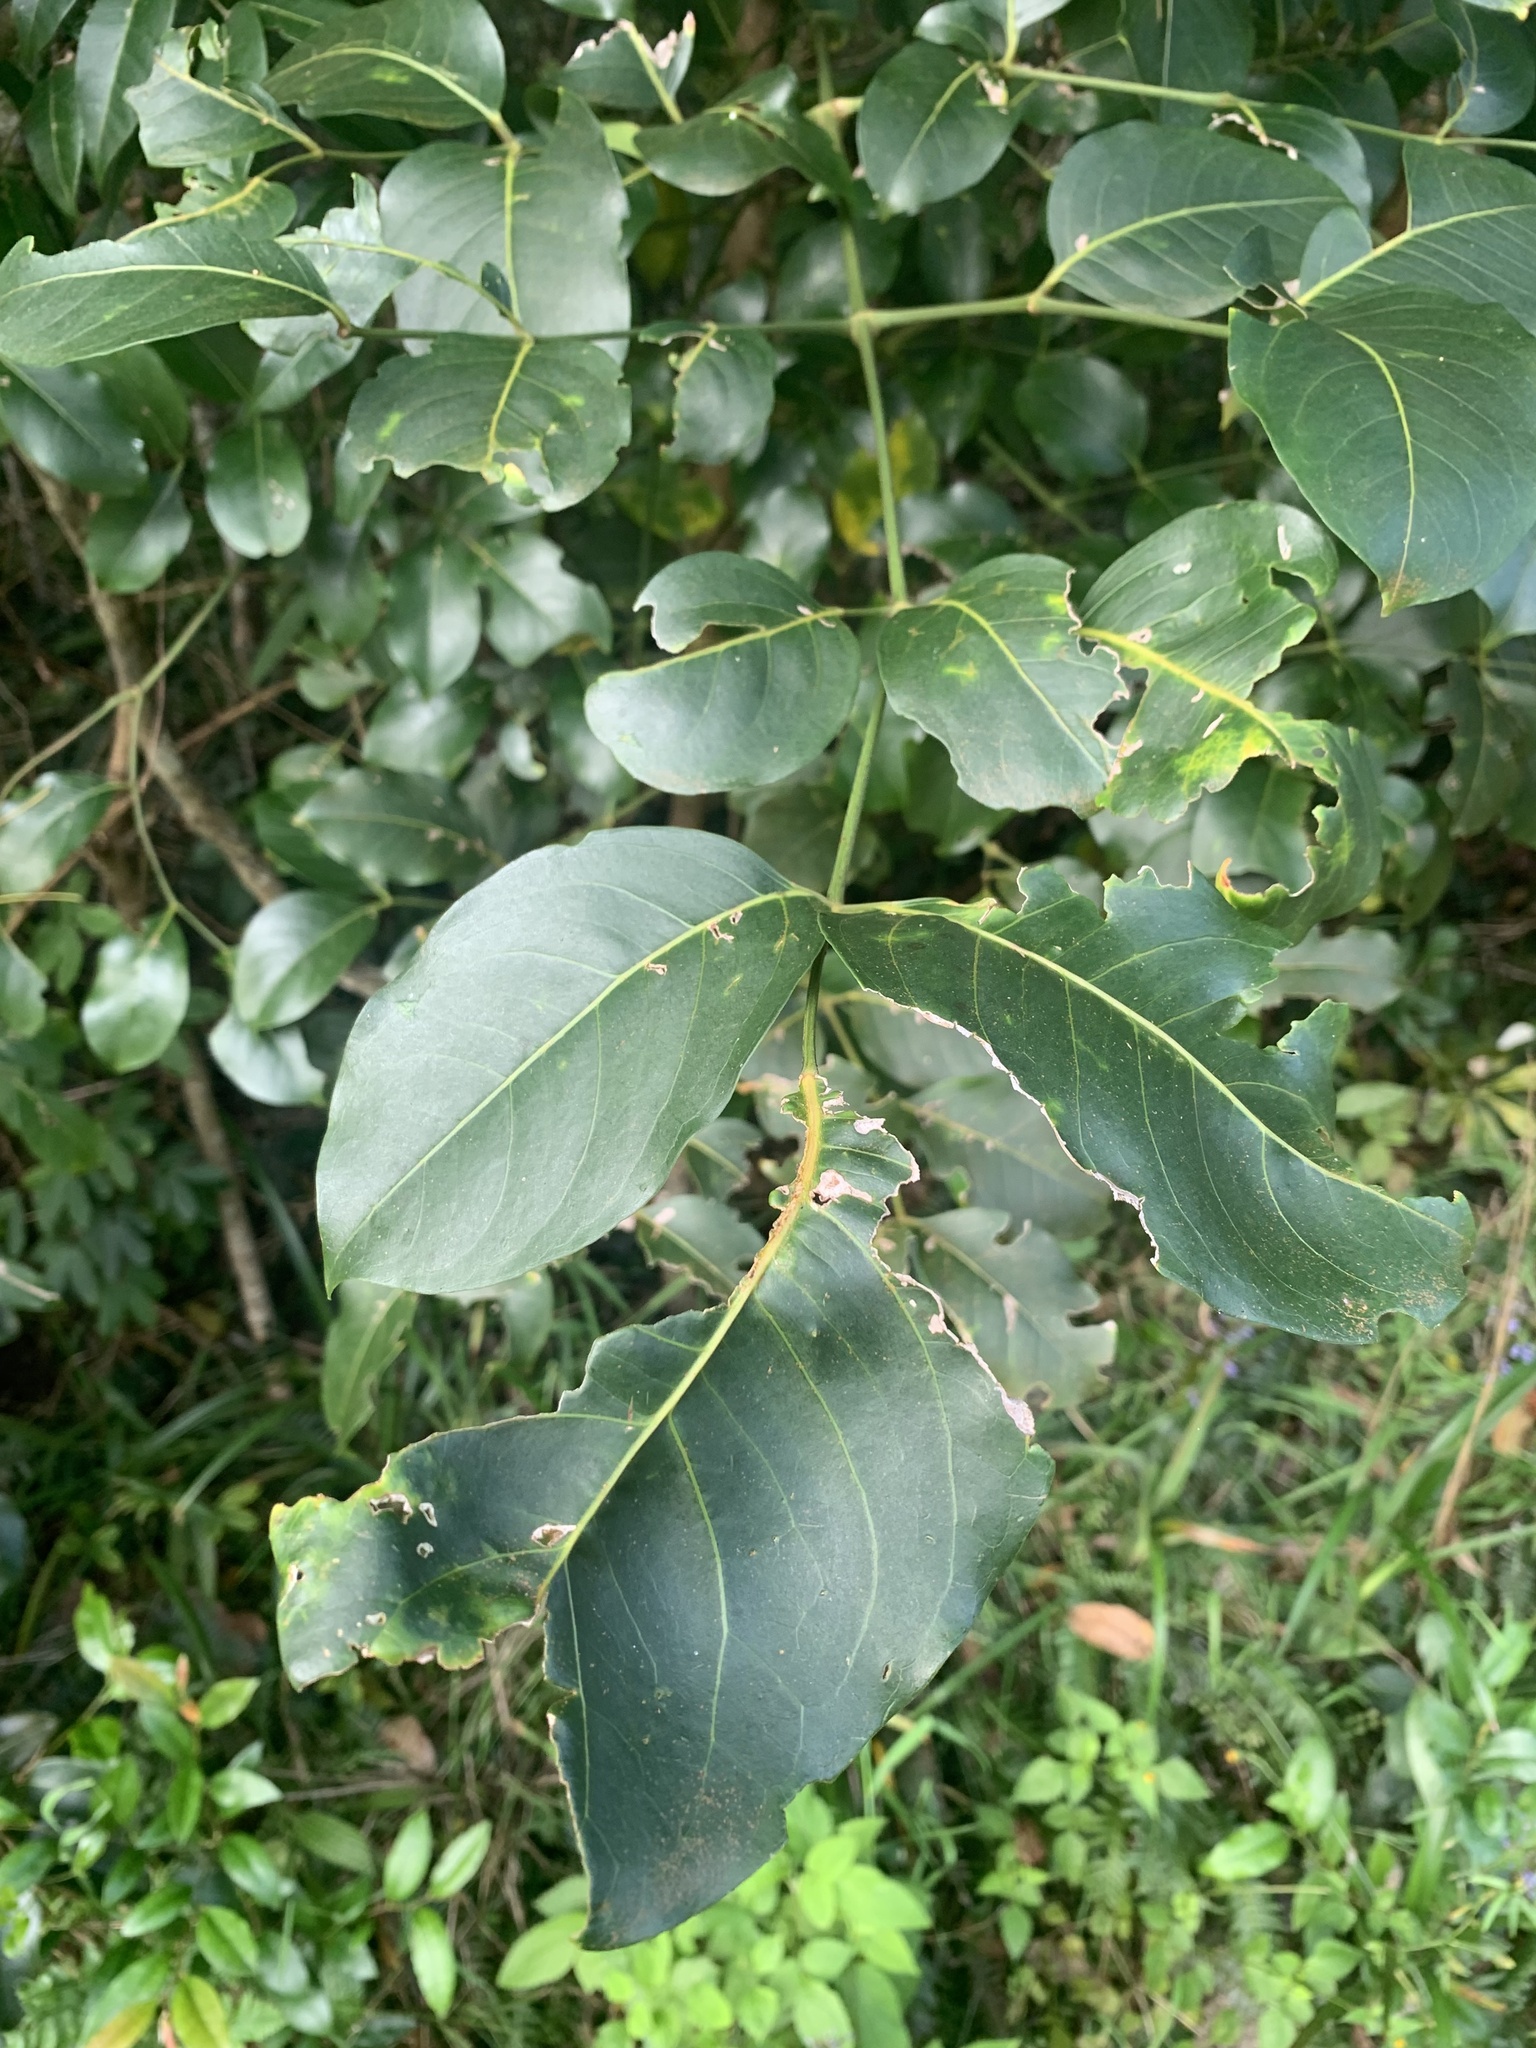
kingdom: Plantae
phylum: Tracheophyta
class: Magnoliopsida
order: Apiales
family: Araliaceae
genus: Polyscias
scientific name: Polyscias elegans
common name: Mowbulan whitewood
